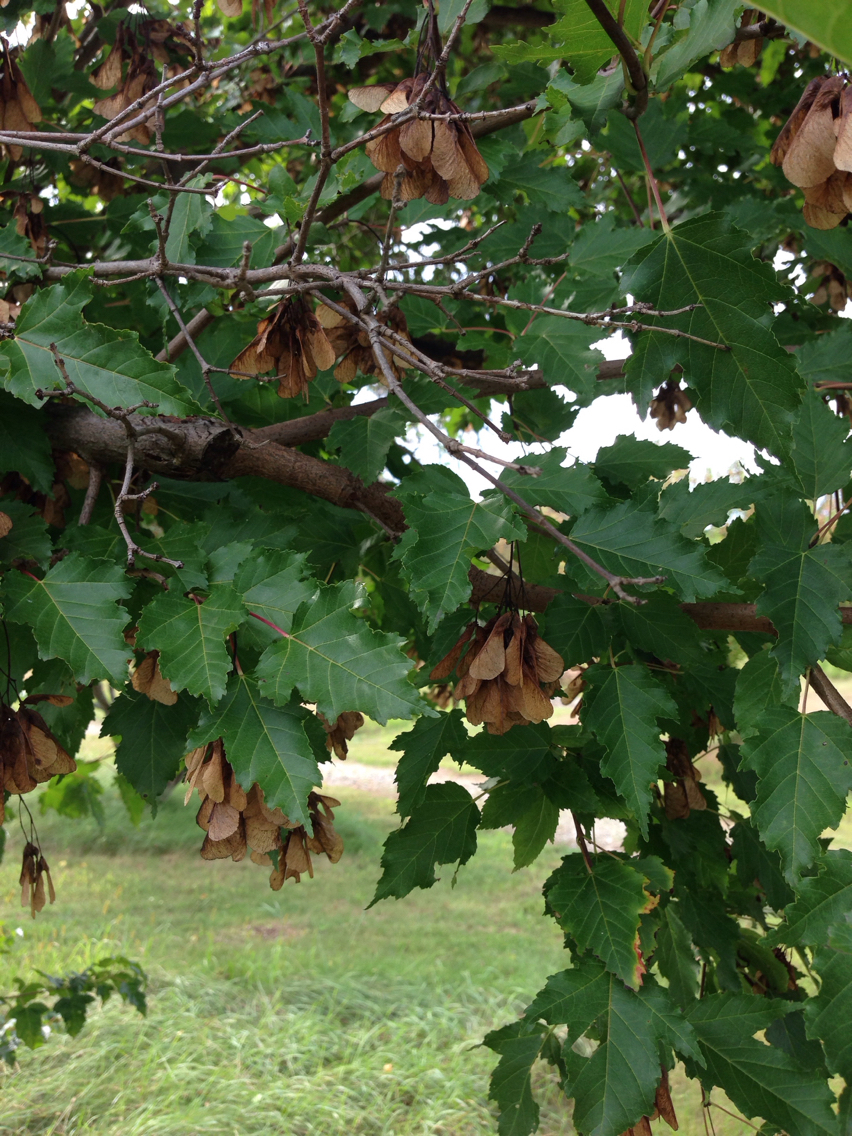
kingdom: Plantae
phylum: Tracheophyta
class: Magnoliopsida
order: Sapindales
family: Sapindaceae
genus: Acer
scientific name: Acer tataricum
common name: Tartar maple
